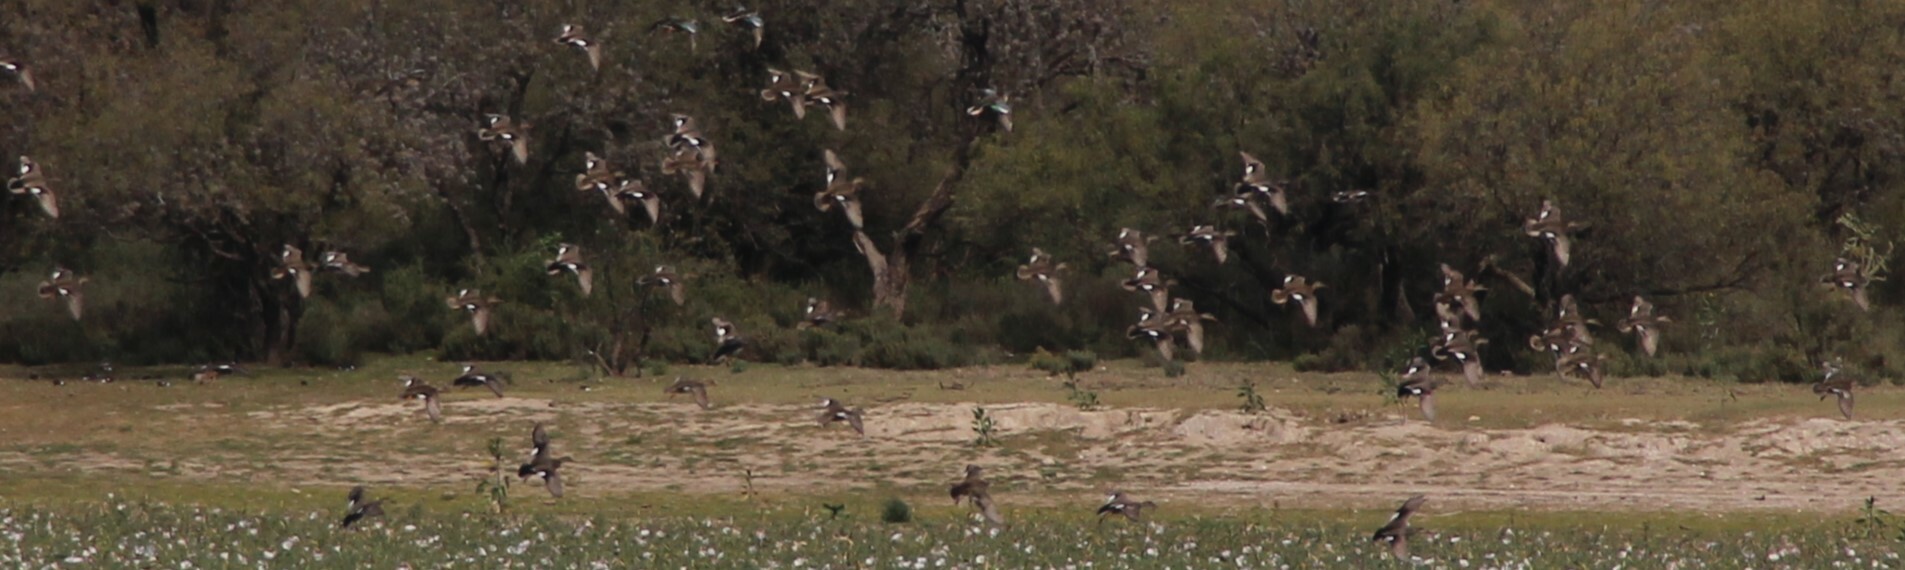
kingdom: Animalia
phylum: Chordata
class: Aves
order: Anseriformes
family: Anatidae
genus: Mareca
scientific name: Mareca strepera
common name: Gadwall
